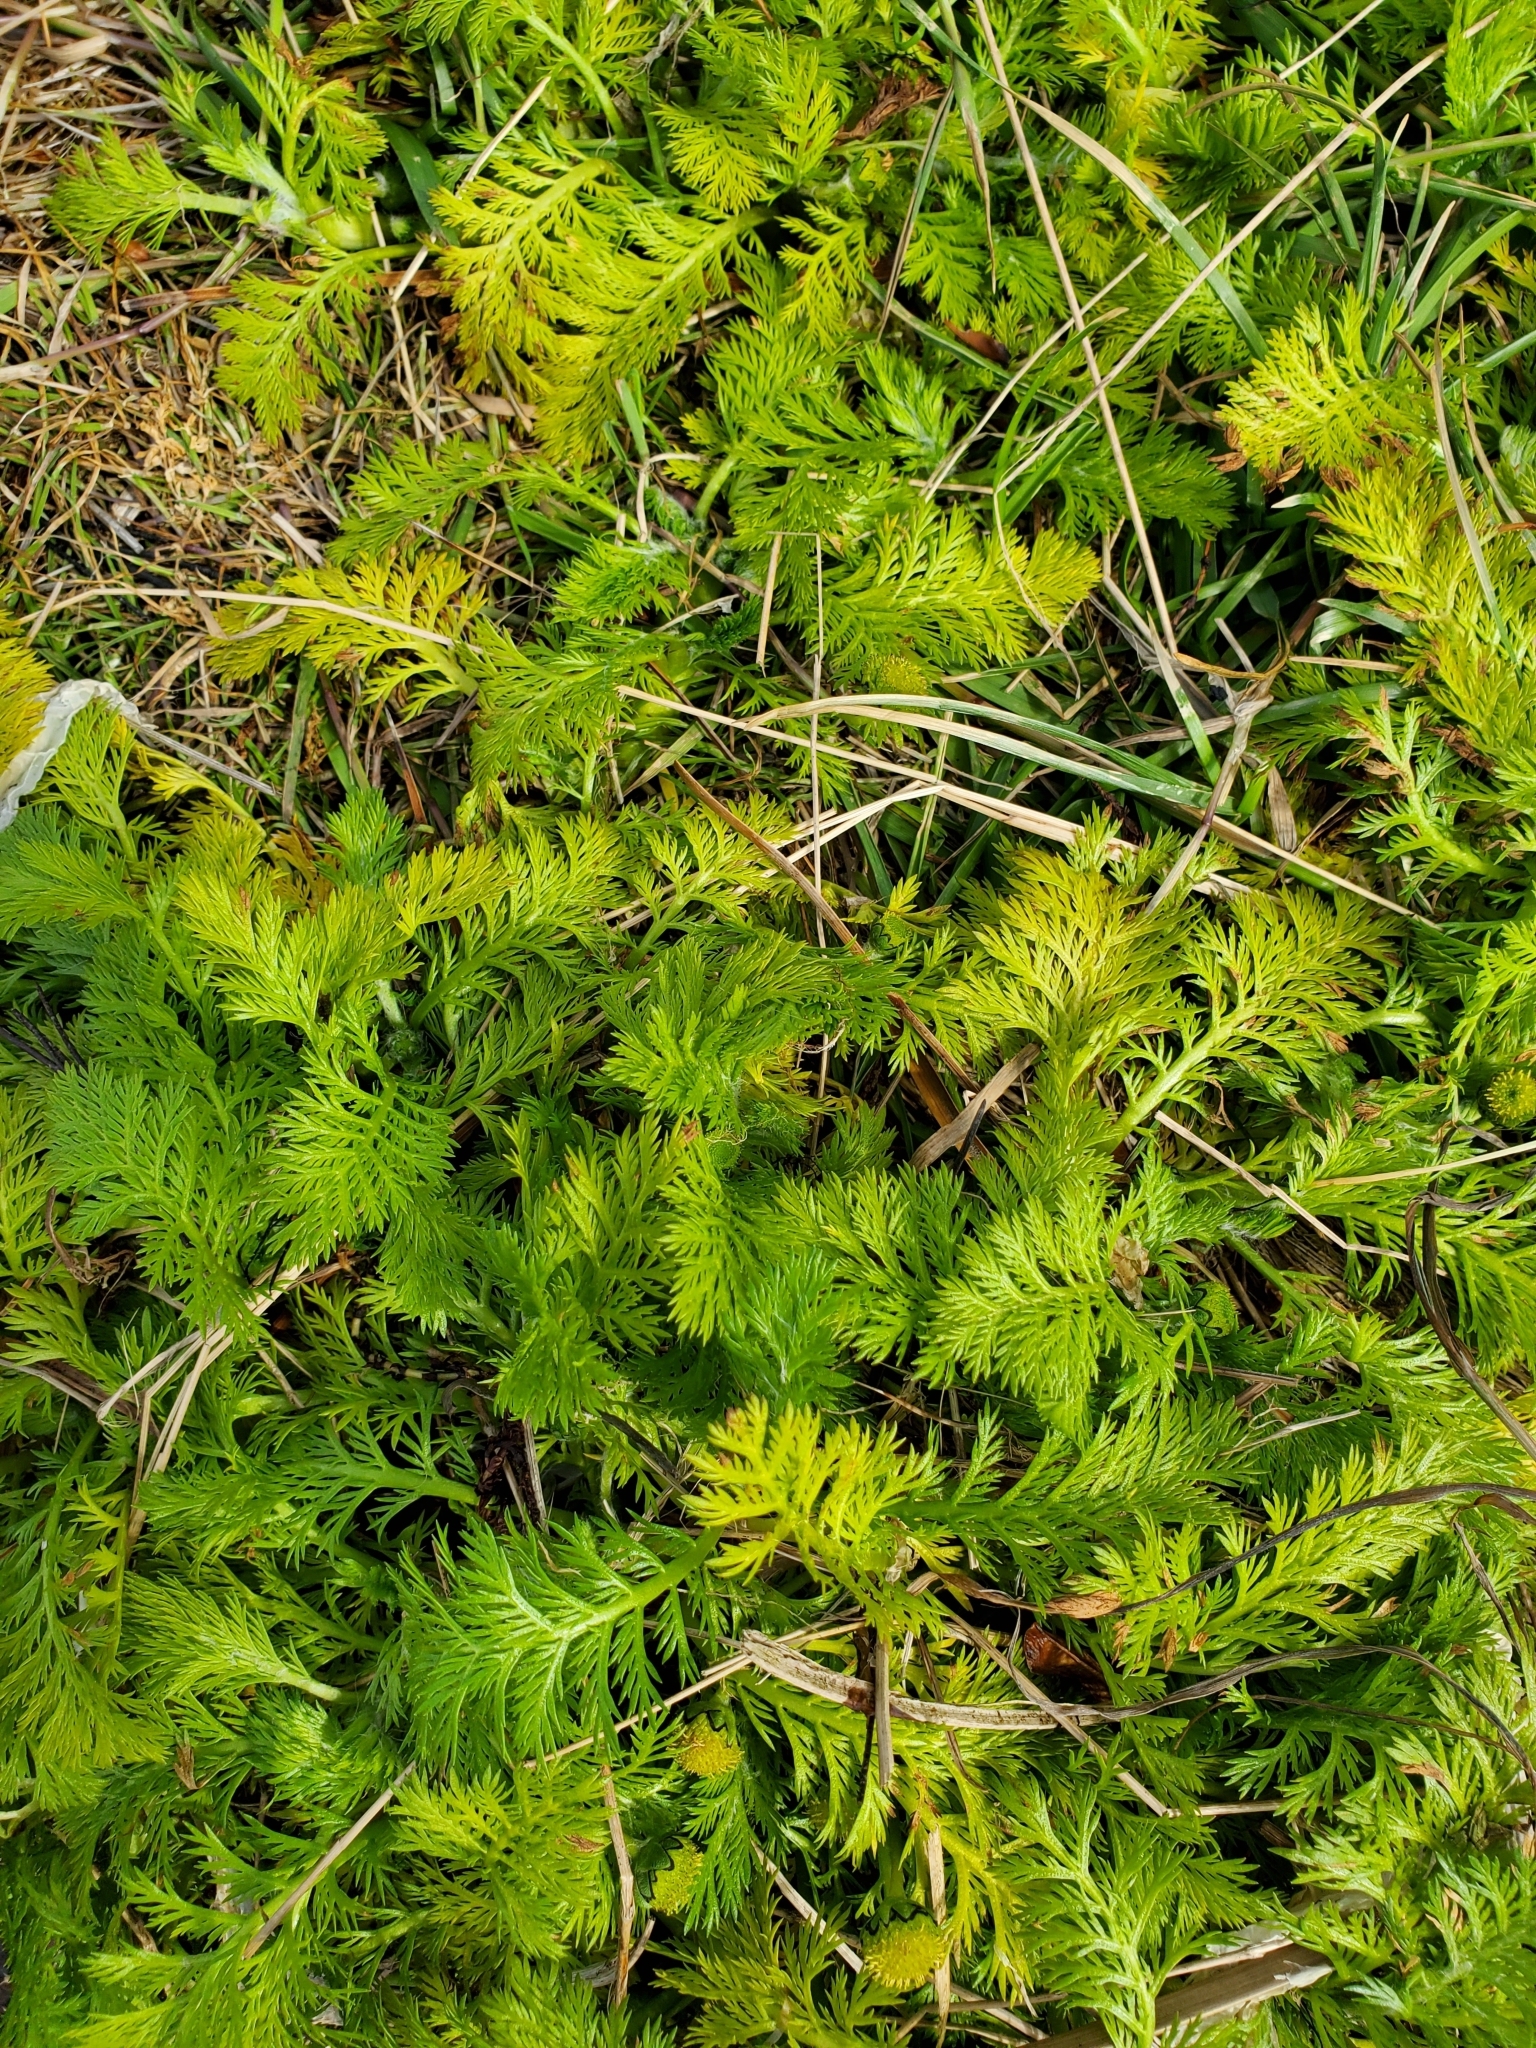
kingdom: Plantae
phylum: Tracheophyta
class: Magnoliopsida
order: Asterales
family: Asteraceae
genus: Leptinella
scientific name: Leptinella plumosa
